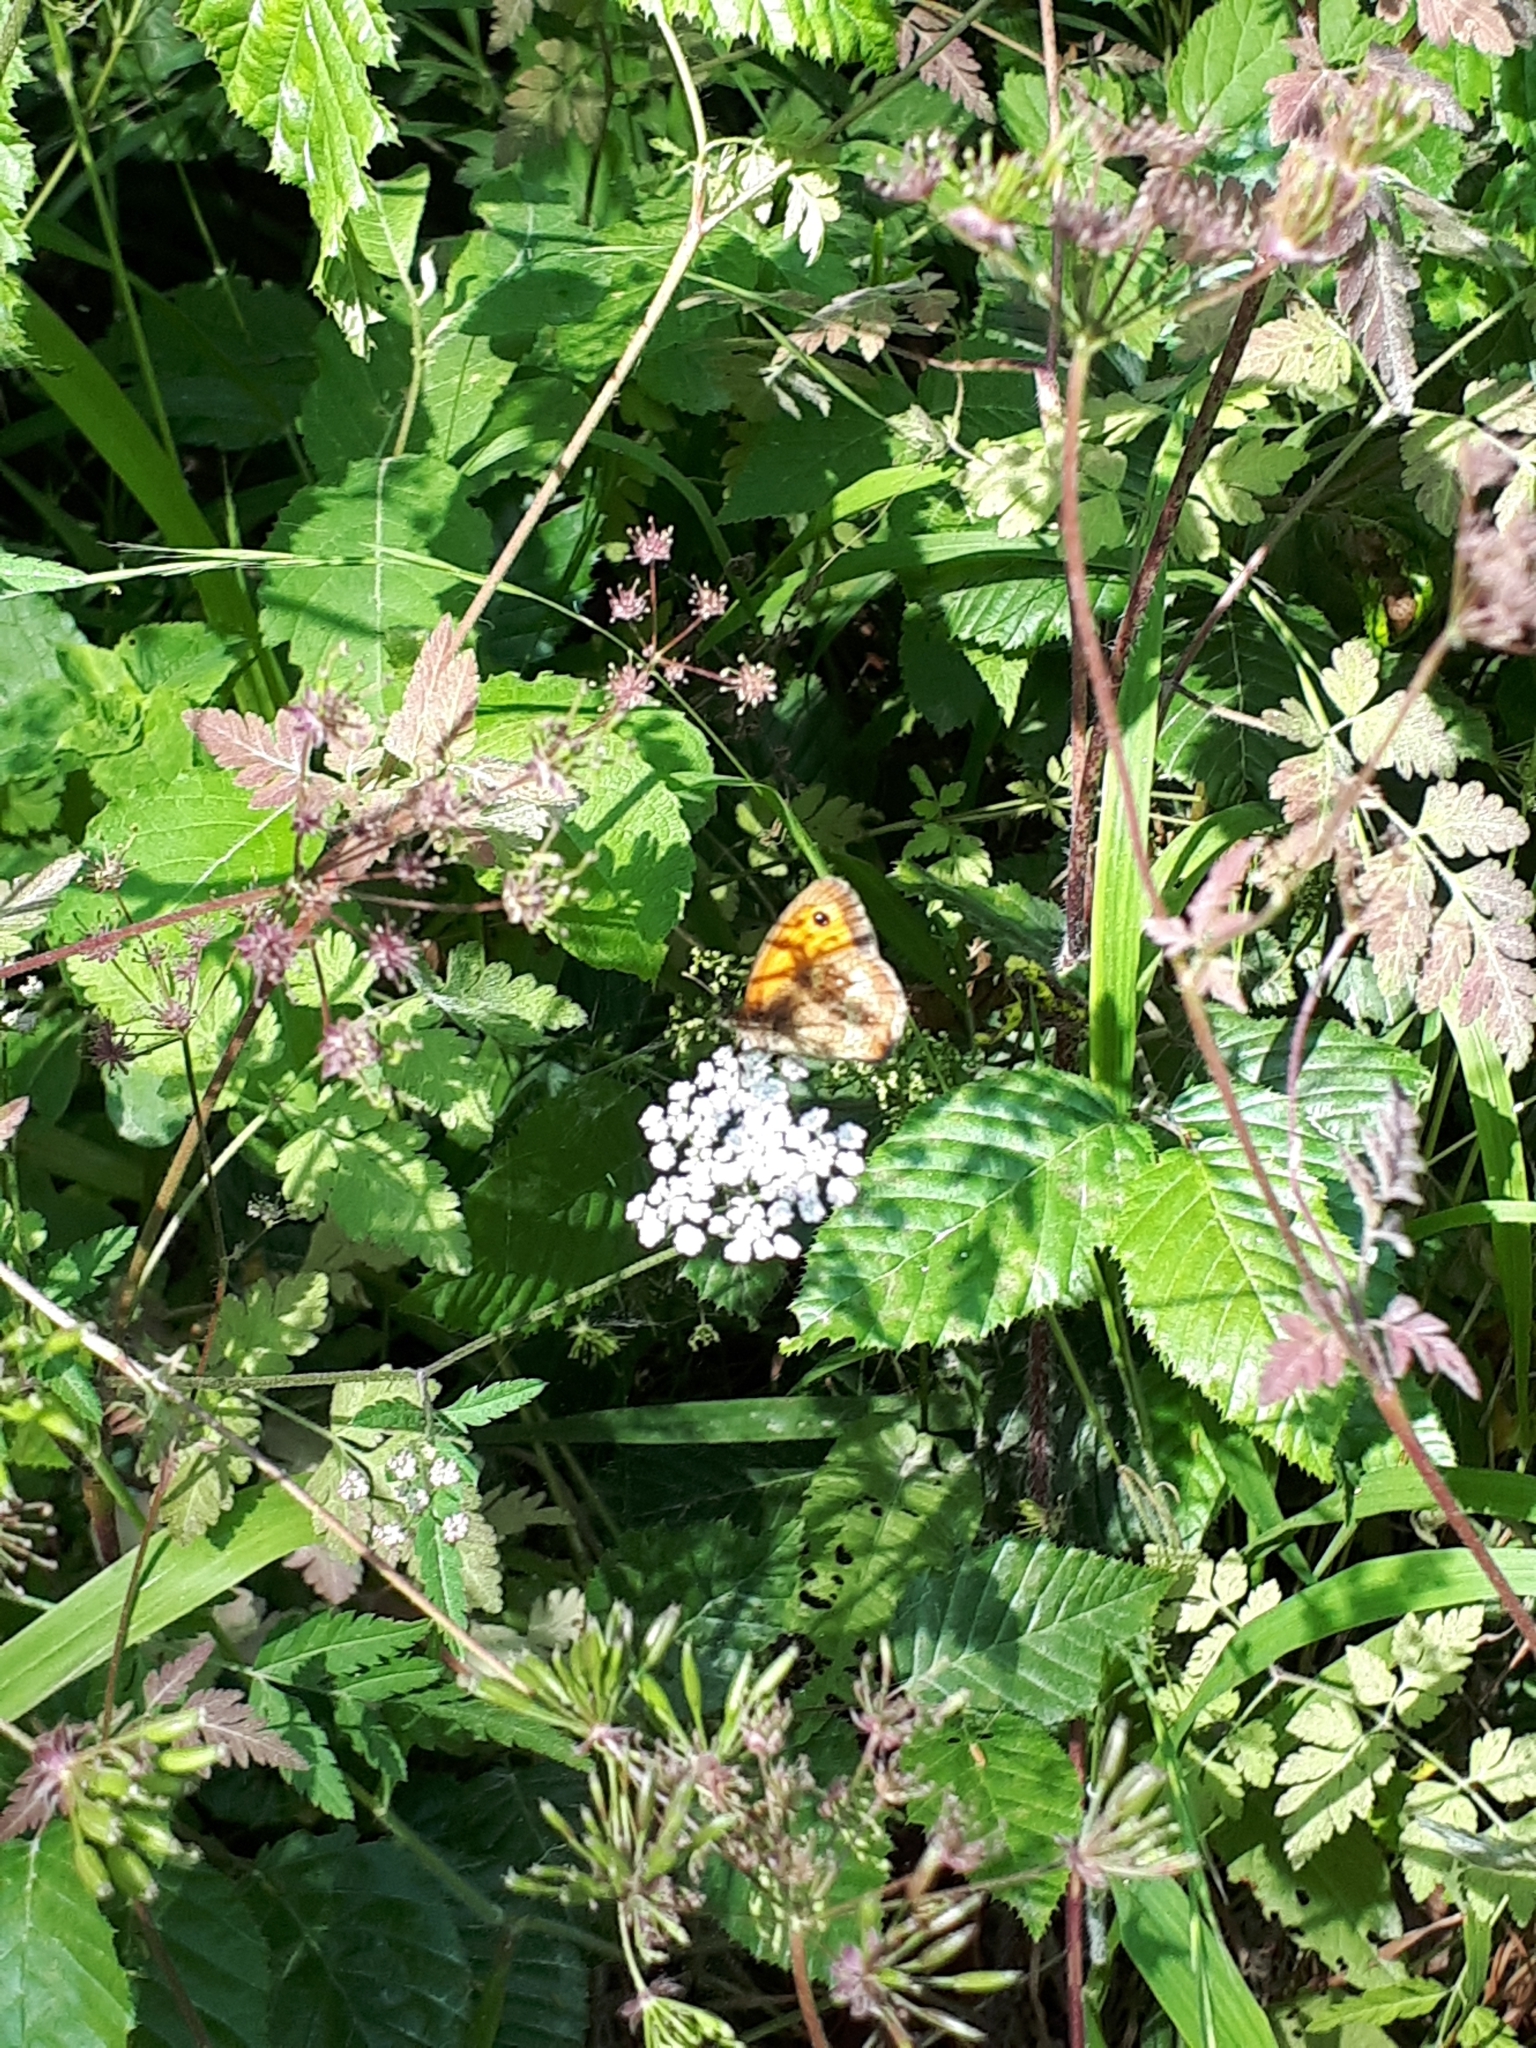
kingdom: Animalia
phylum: Arthropoda
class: Insecta
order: Lepidoptera
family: Nymphalidae
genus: Pyronia
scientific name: Pyronia tithonus
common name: Gatekeeper
